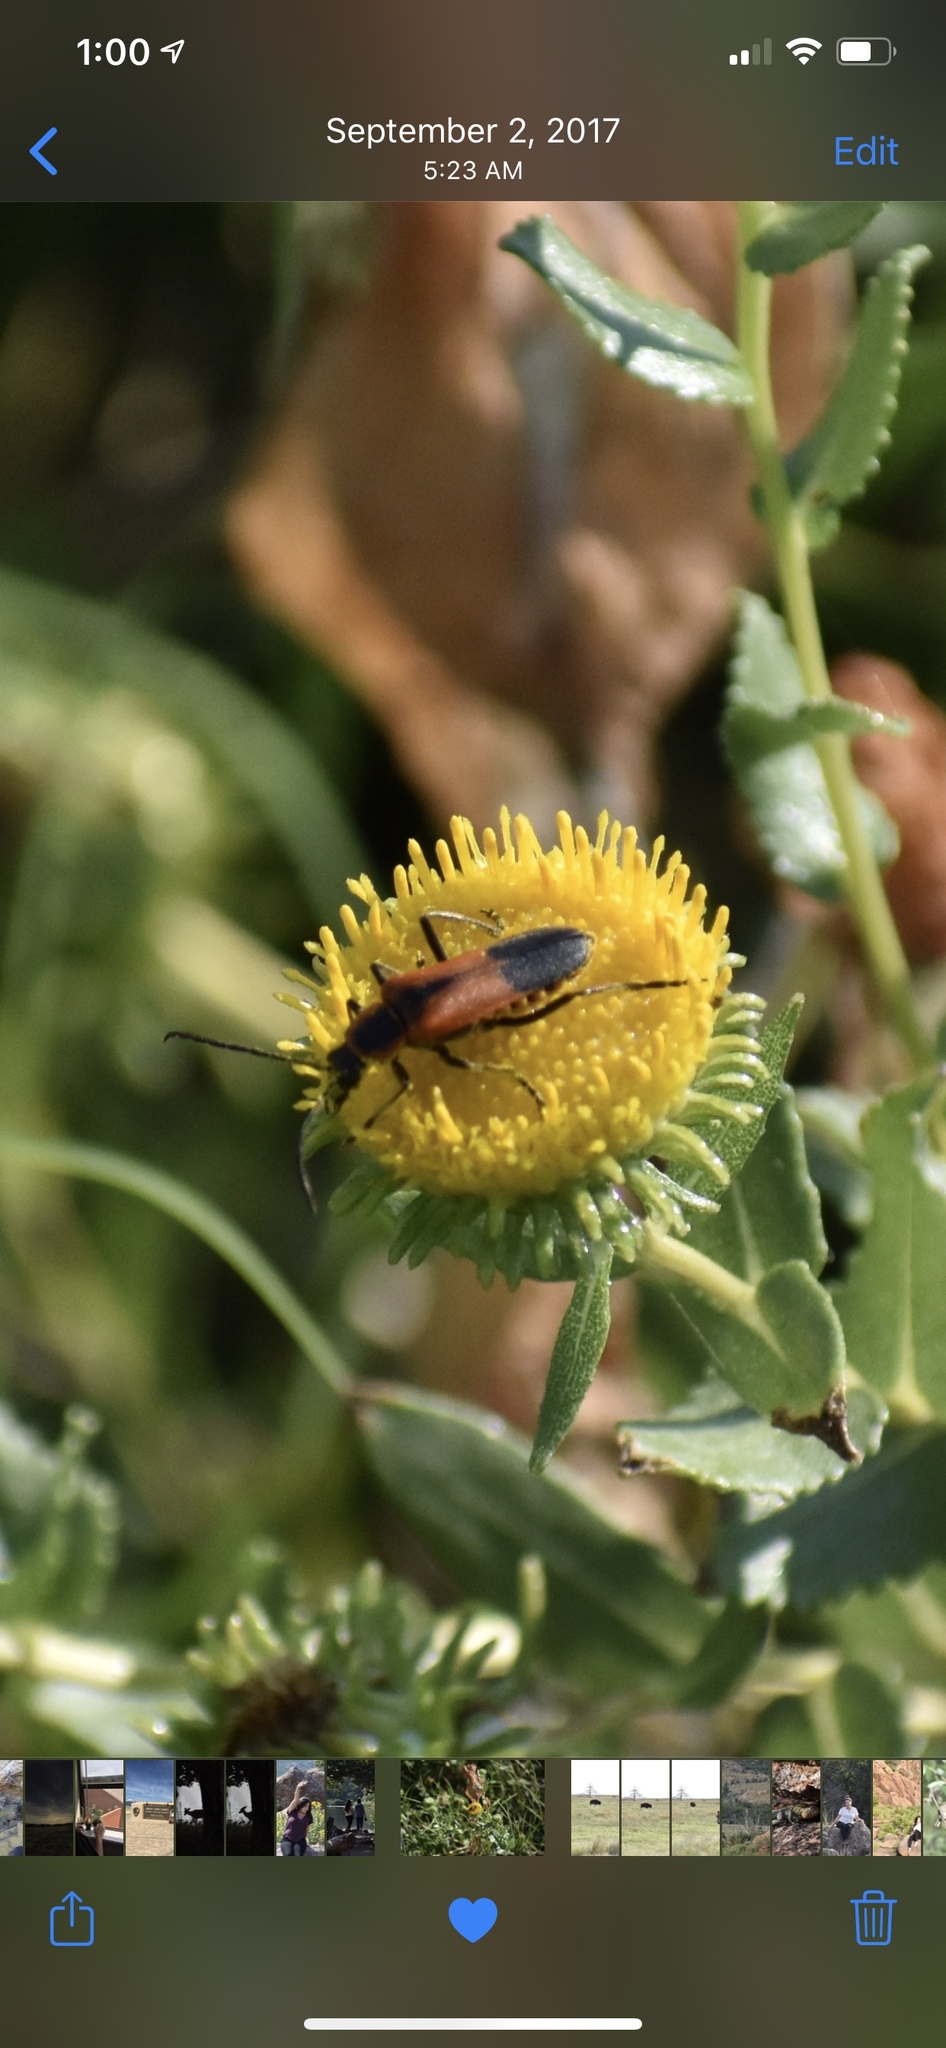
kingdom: Animalia
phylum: Arthropoda
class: Insecta
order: Coleoptera
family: Cantharidae
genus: Chauliognathus
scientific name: Chauliognathus limbicollis
